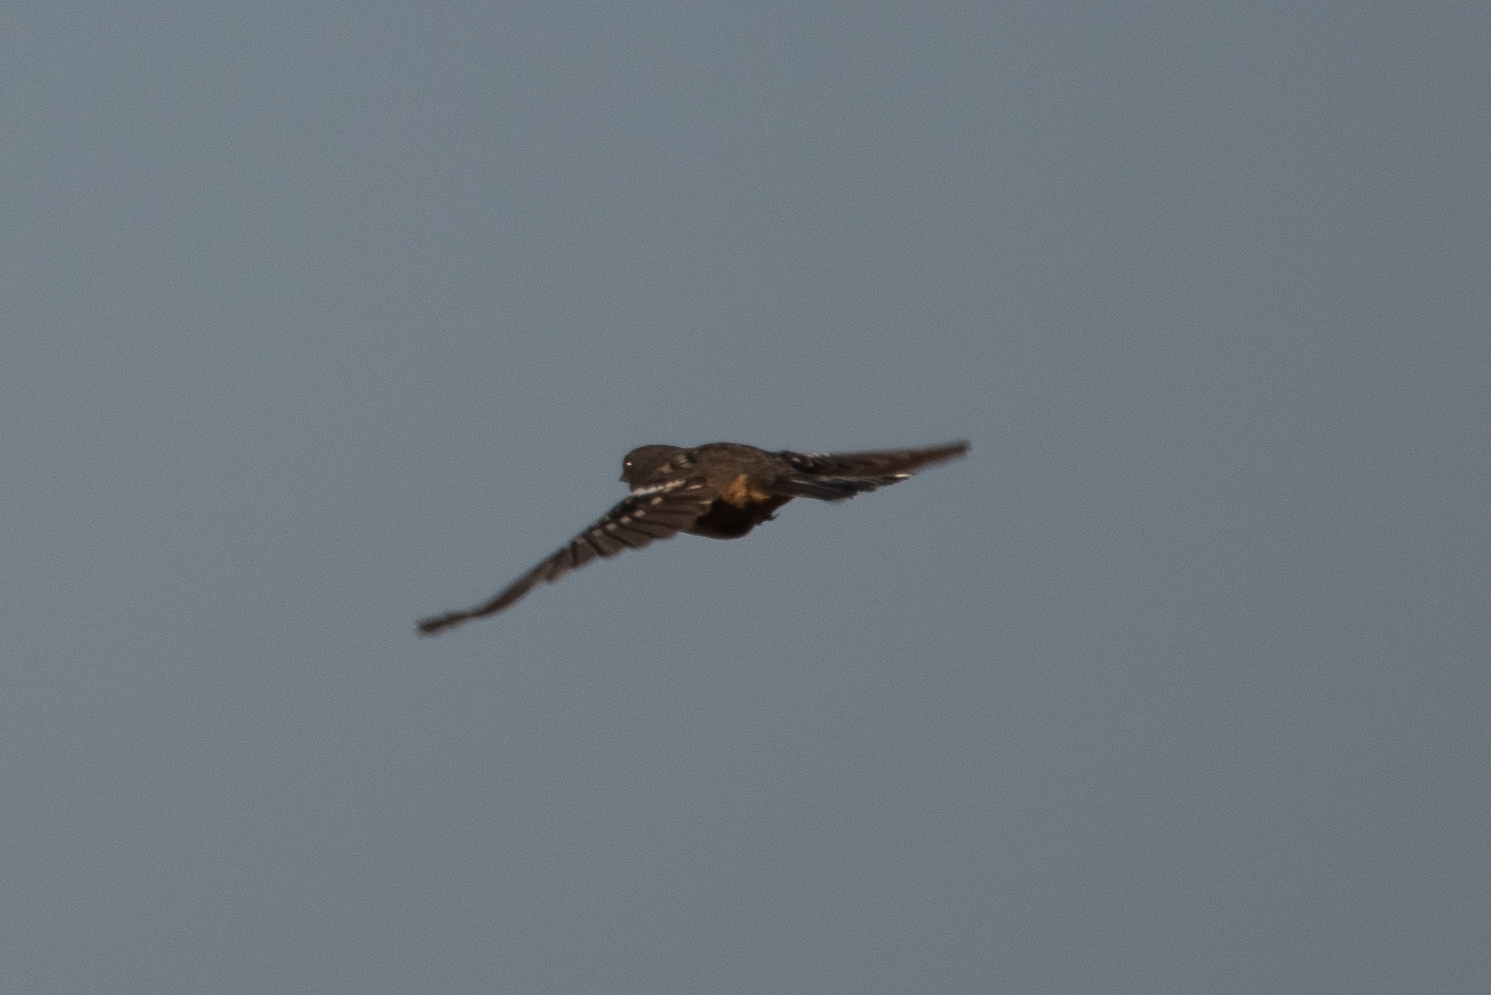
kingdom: Animalia
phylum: Chordata
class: Aves
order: Passeriformes
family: Passerellidae
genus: Pipilo
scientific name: Pipilo maculatus
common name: Spotted towhee
